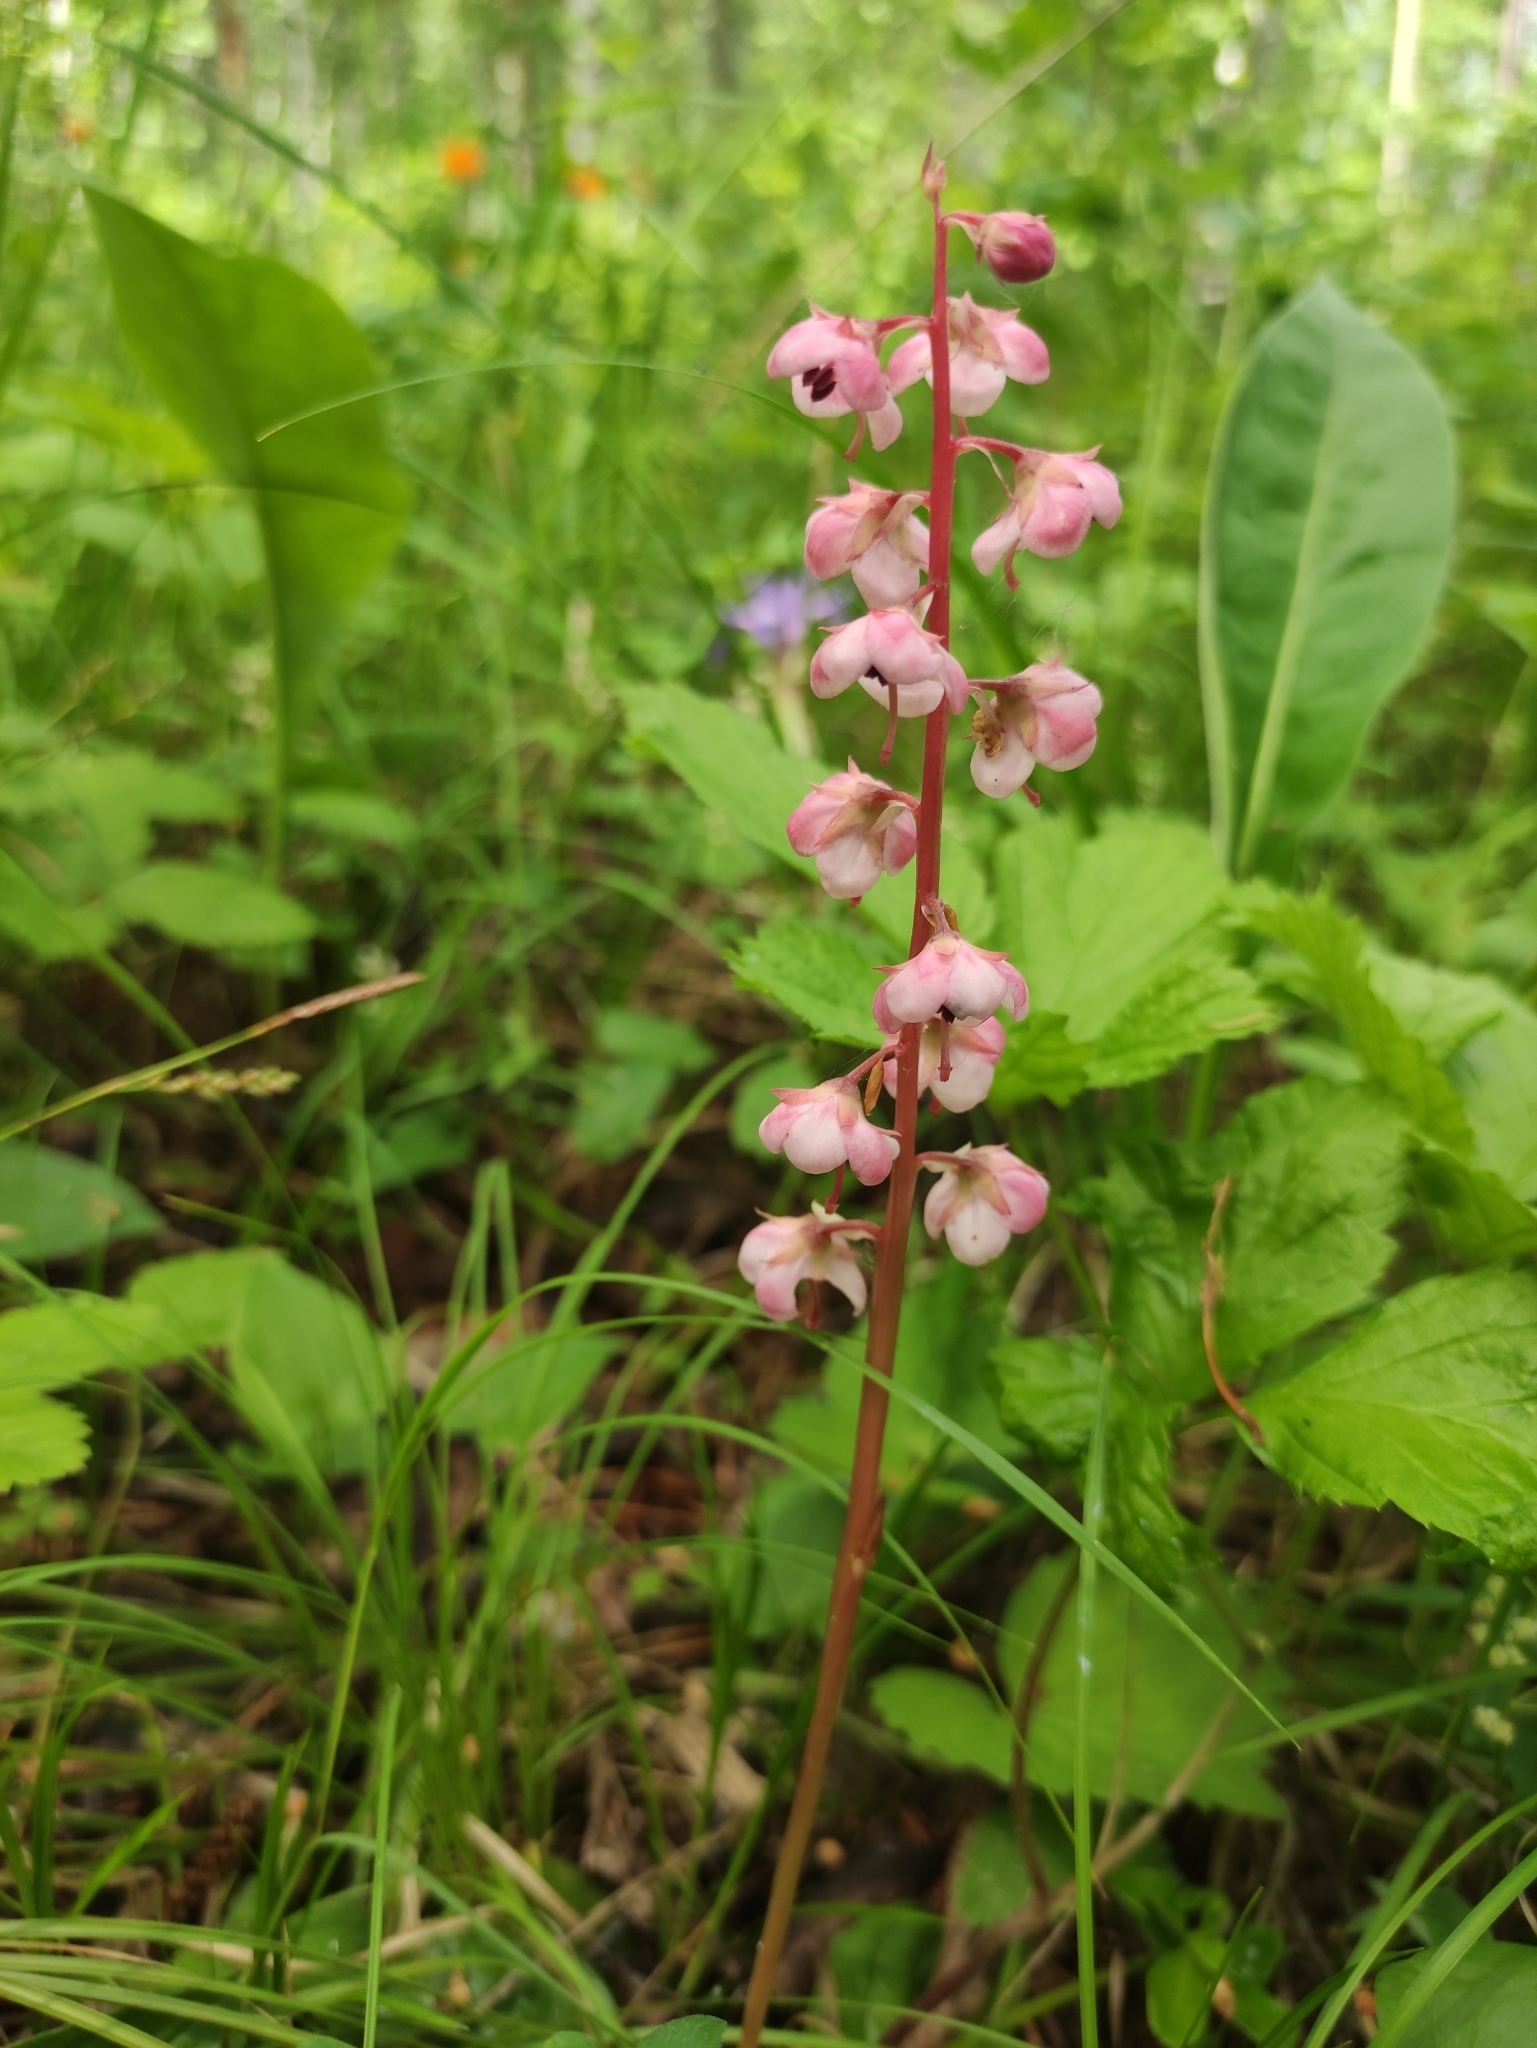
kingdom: Plantae
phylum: Tracheophyta
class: Magnoliopsida
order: Ericales
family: Ericaceae
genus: Pyrola
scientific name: Pyrola asarifolia
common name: Bog wintergreen
